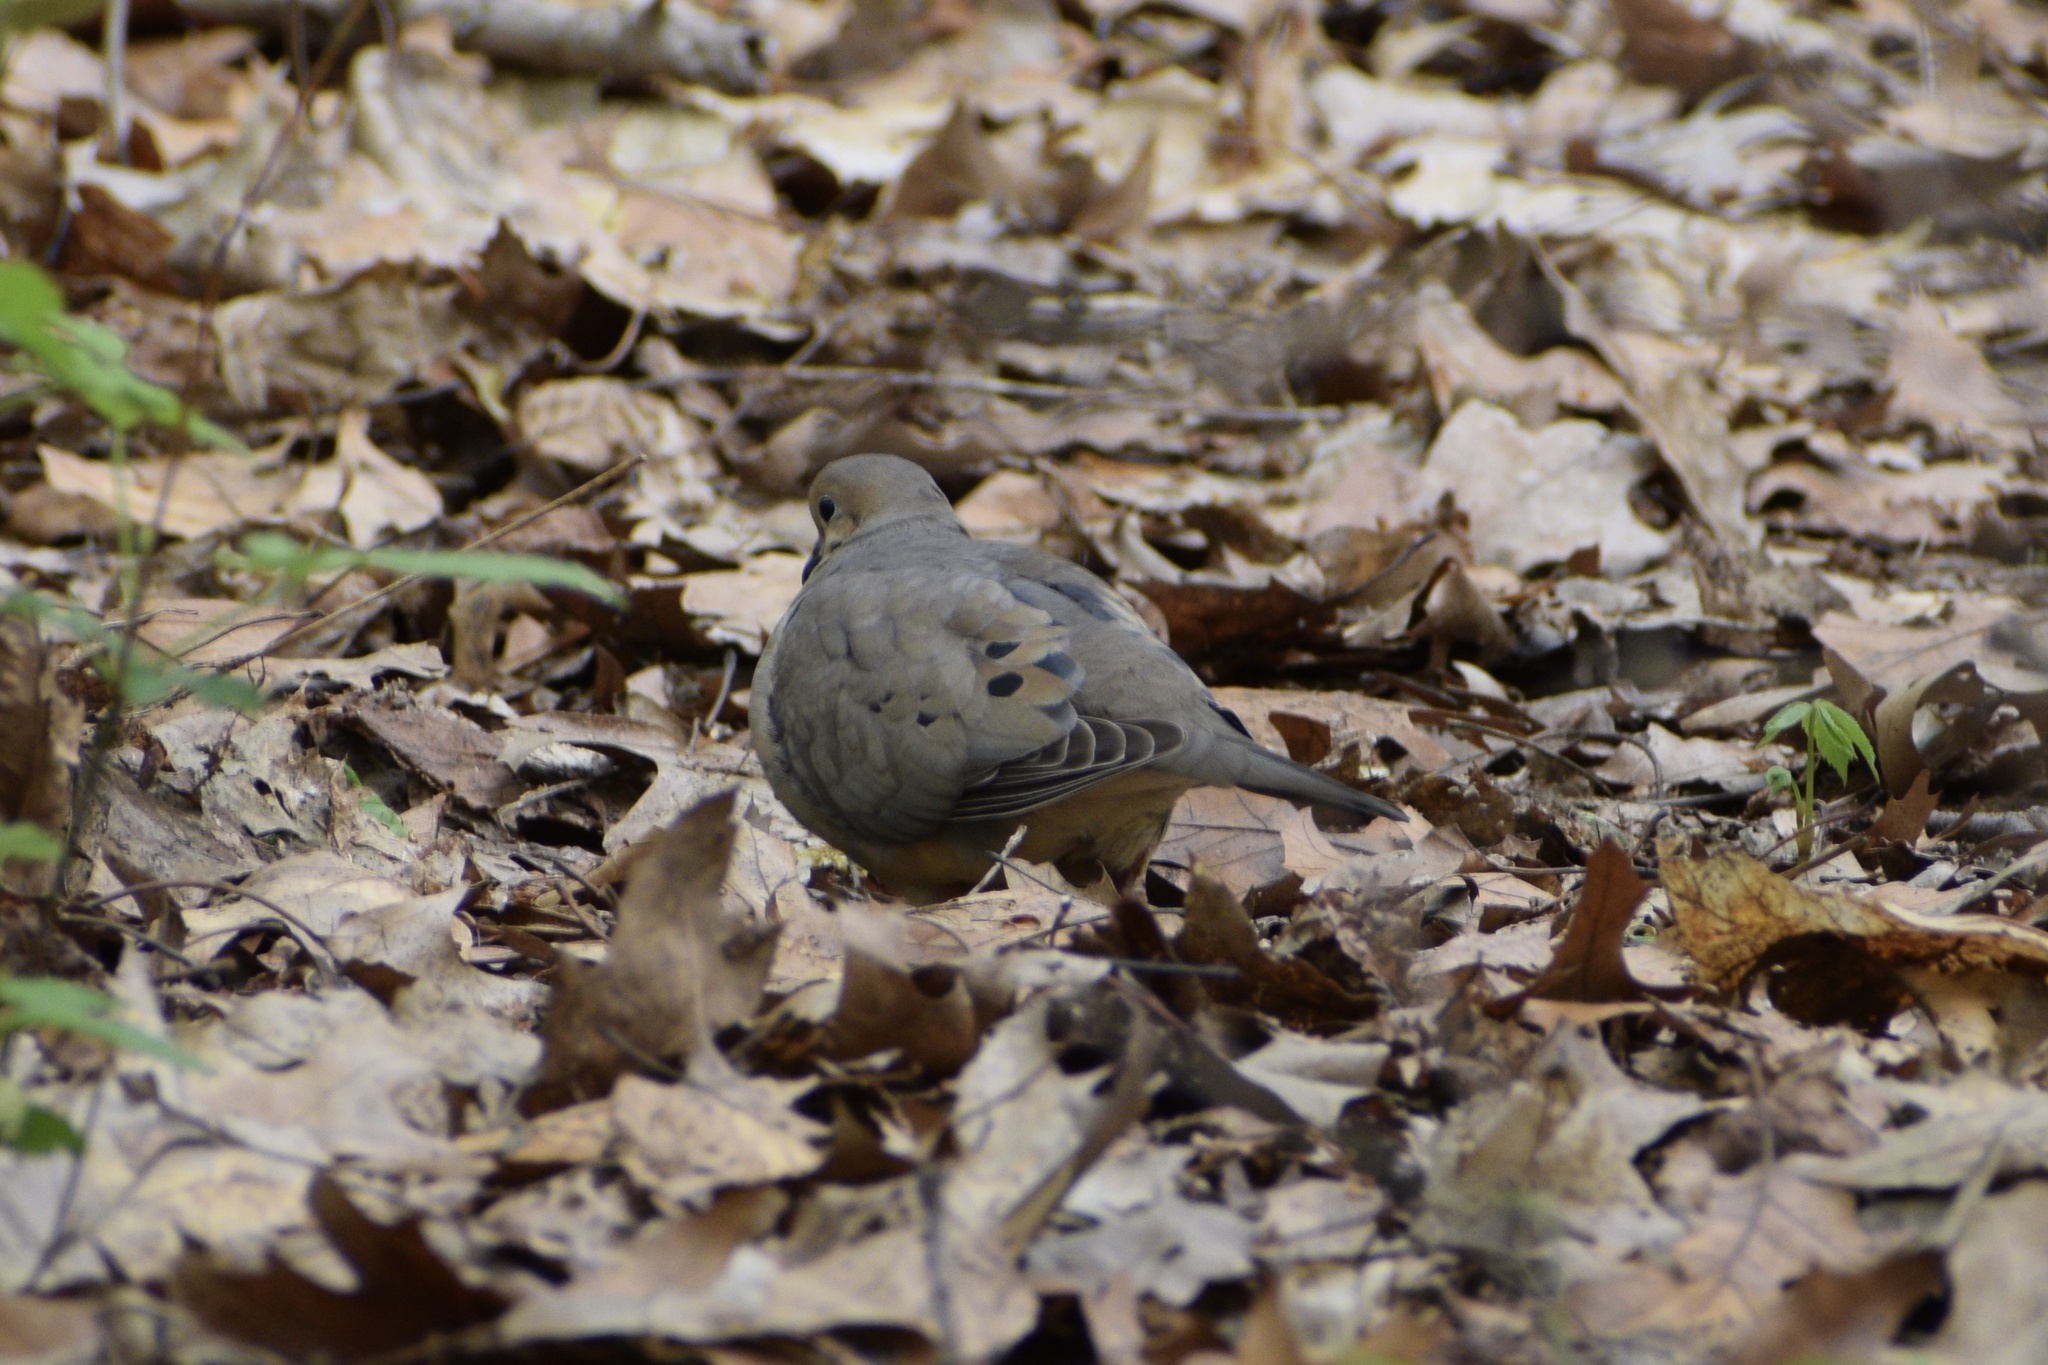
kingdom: Animalia
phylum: Chordata
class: Aves
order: Columbiformes
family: Columbidae
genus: Zenaida
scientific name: Zenaida macroura
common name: Mourning dove
